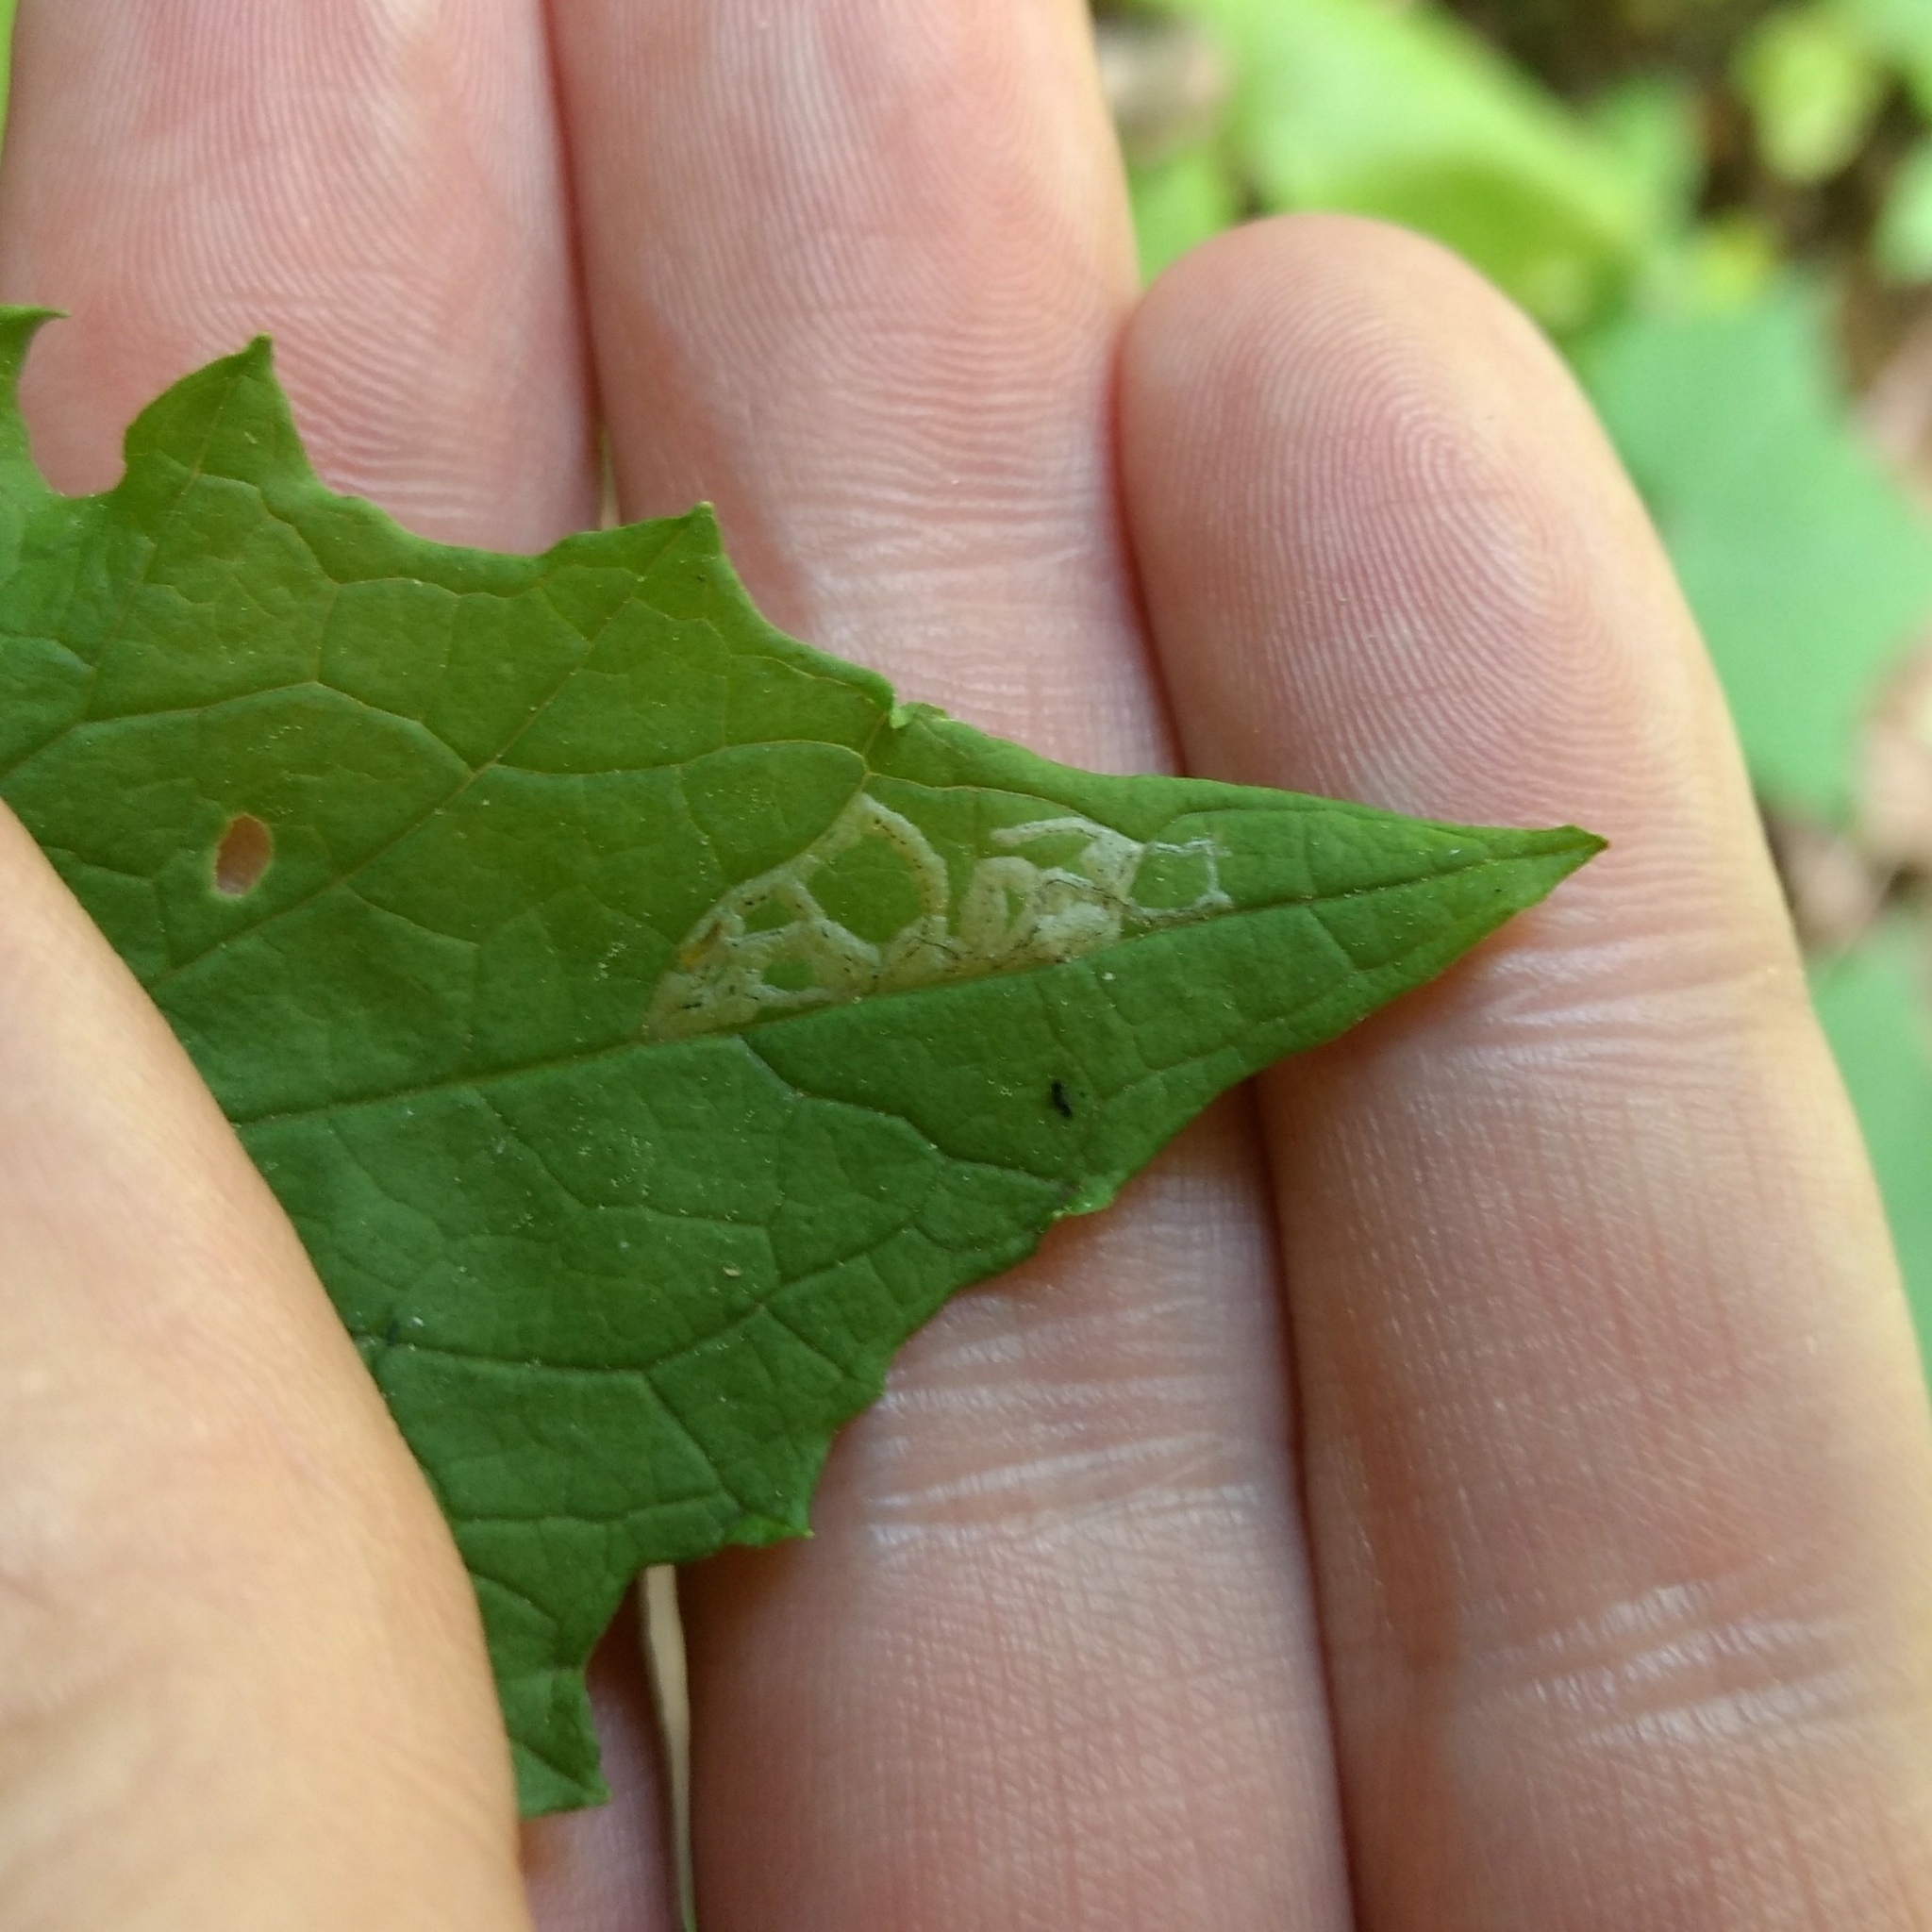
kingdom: Animalia
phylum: Arthropoda
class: Insecta
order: Diptera
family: Agromyzidae
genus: Liriomyza
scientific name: Liriomyza brassicae
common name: Serpentine leaf miner
